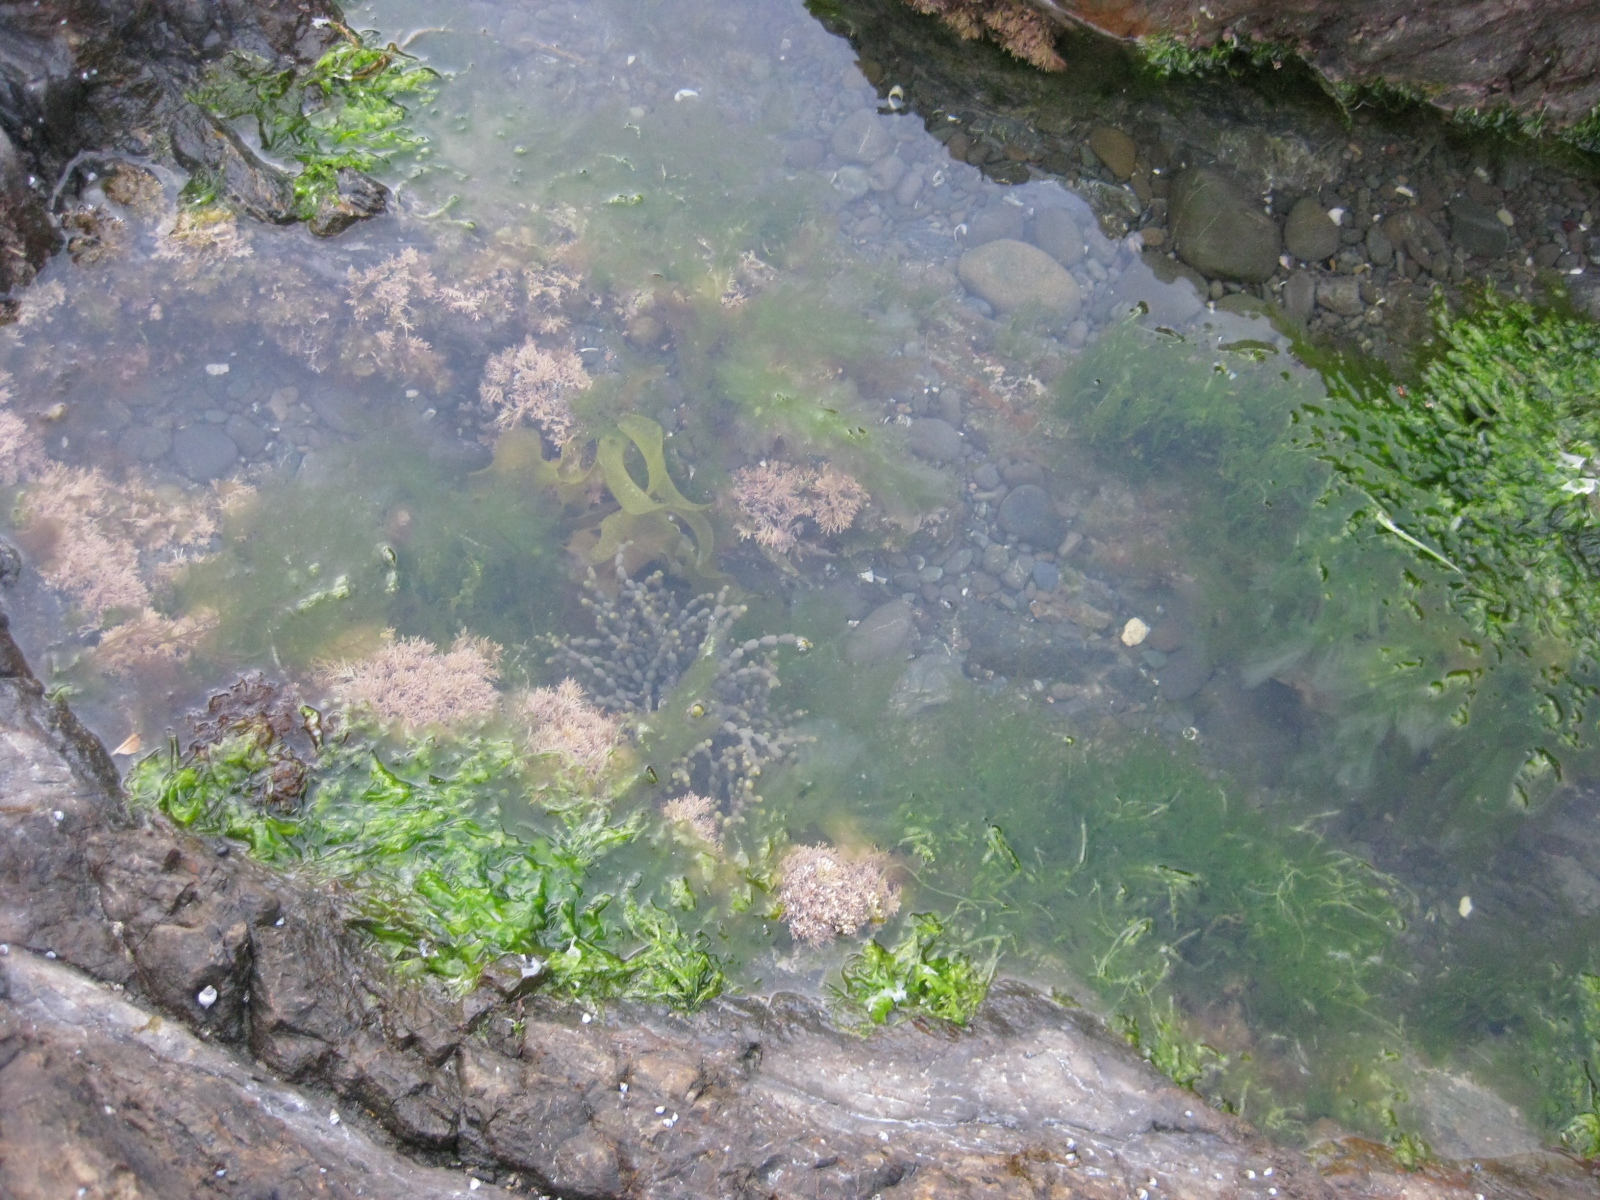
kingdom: Chromista
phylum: Ochrophyta
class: Phaeophyceae
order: Fucales
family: Hormosiraceae
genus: Hormosira
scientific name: Hormosira banksii
